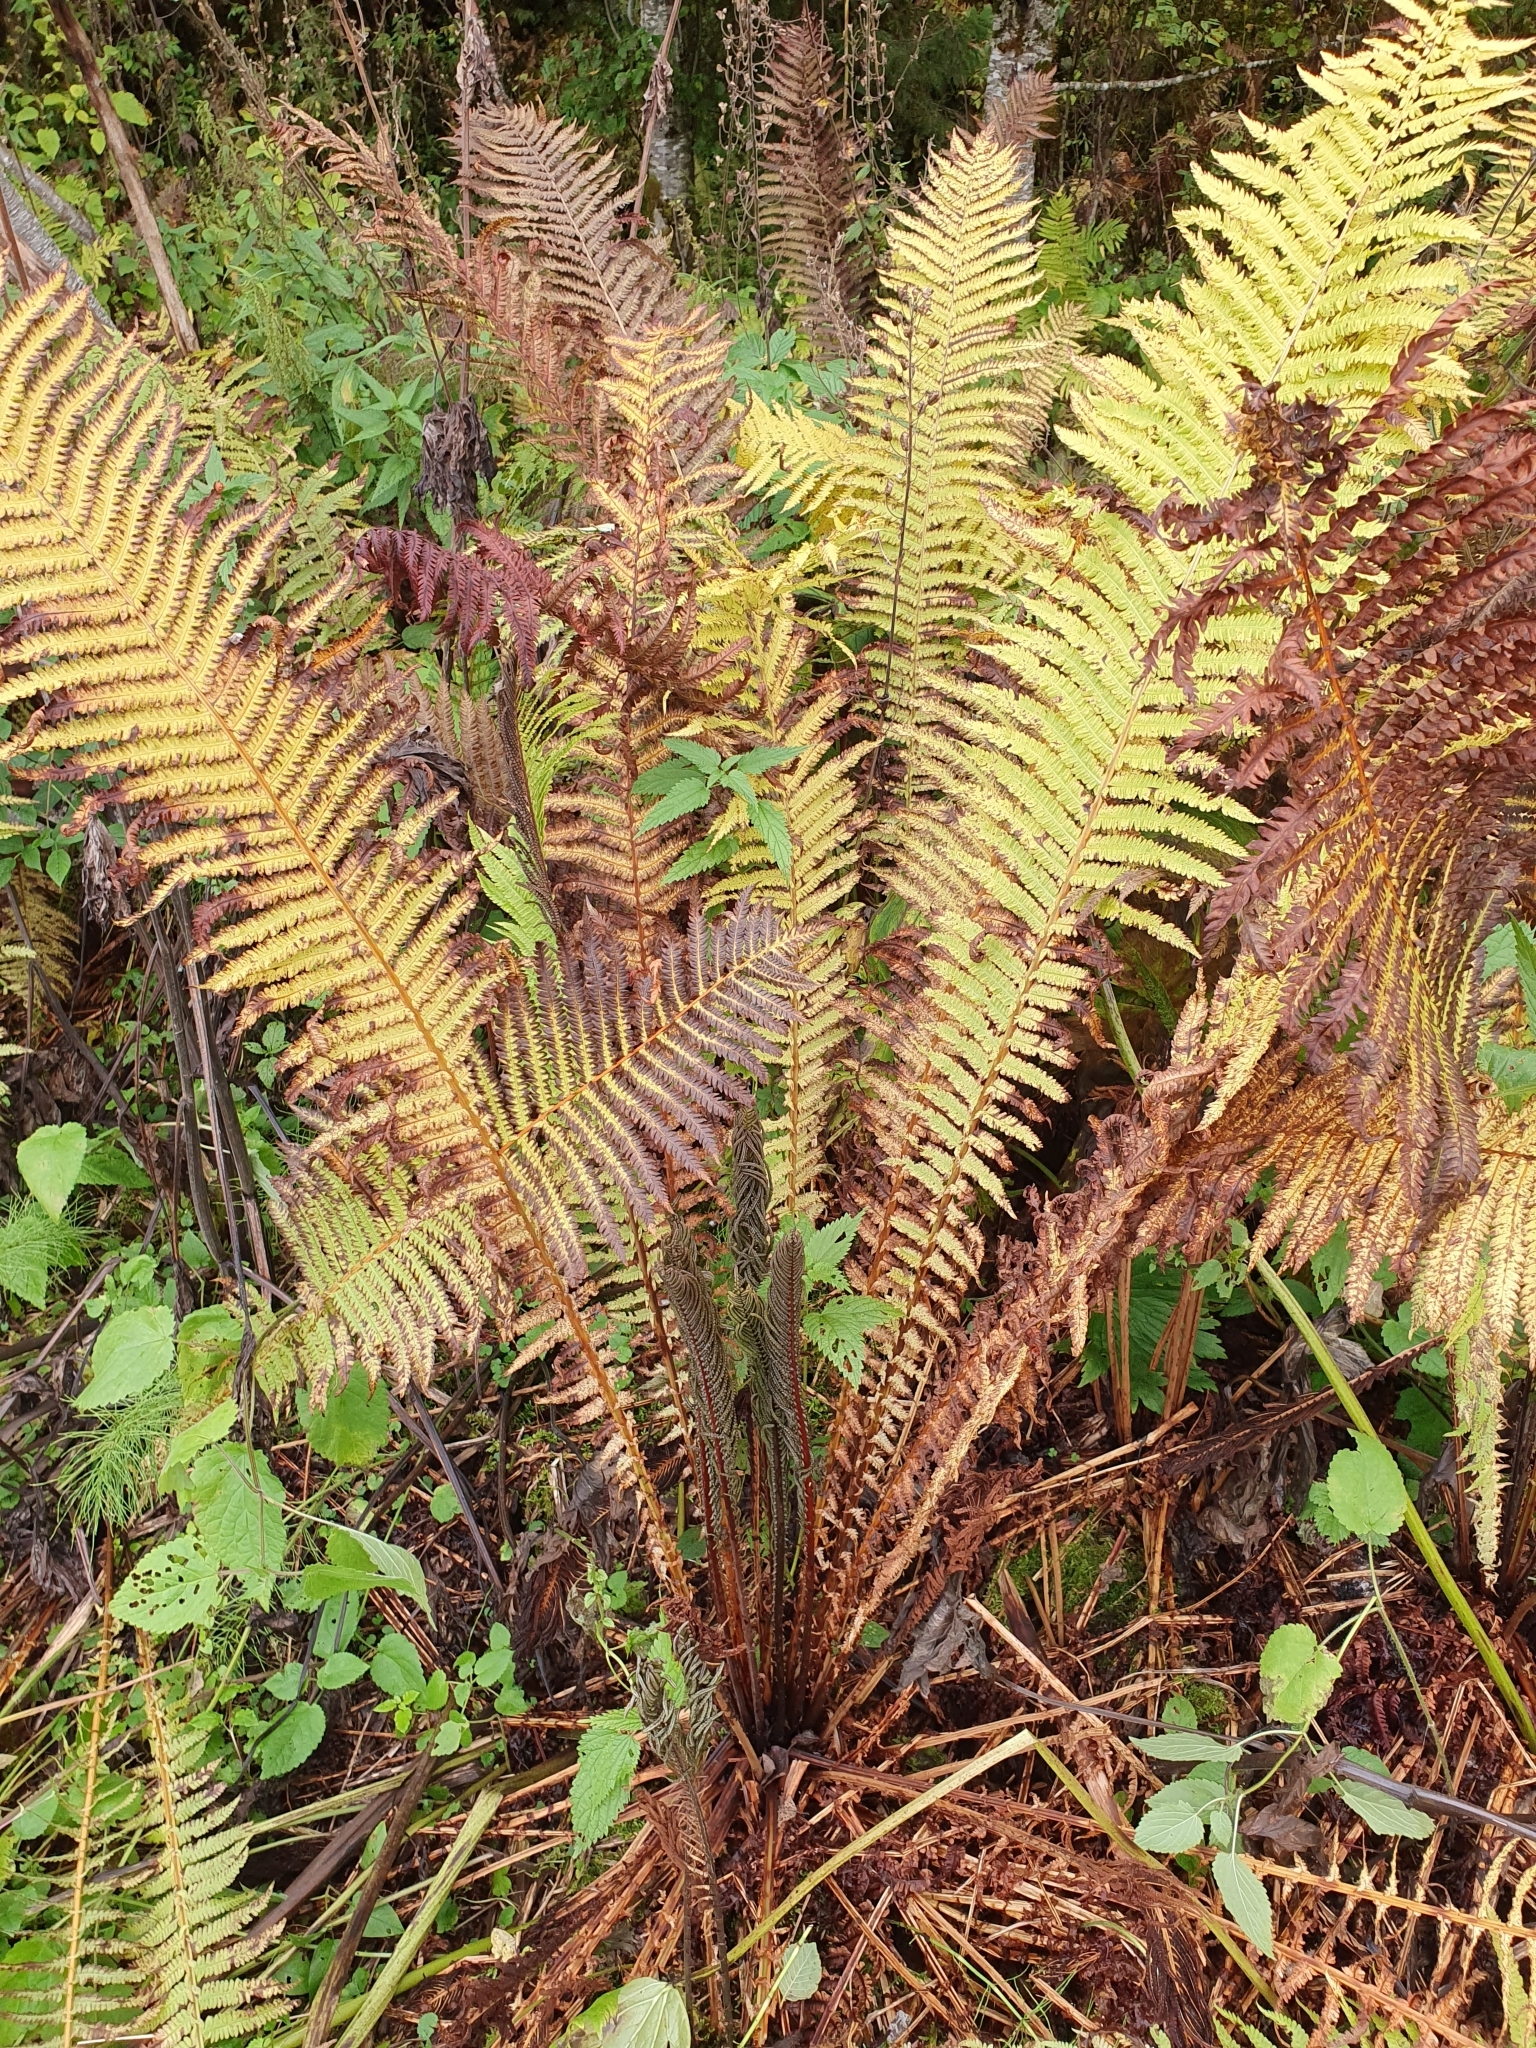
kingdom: Plantae
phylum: Tracheophyta
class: Polypodiopsida
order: Polypodiales
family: Onocleaceae
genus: Matteuccia
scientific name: Matteuccia struthiopteris
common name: Ostrich fern
